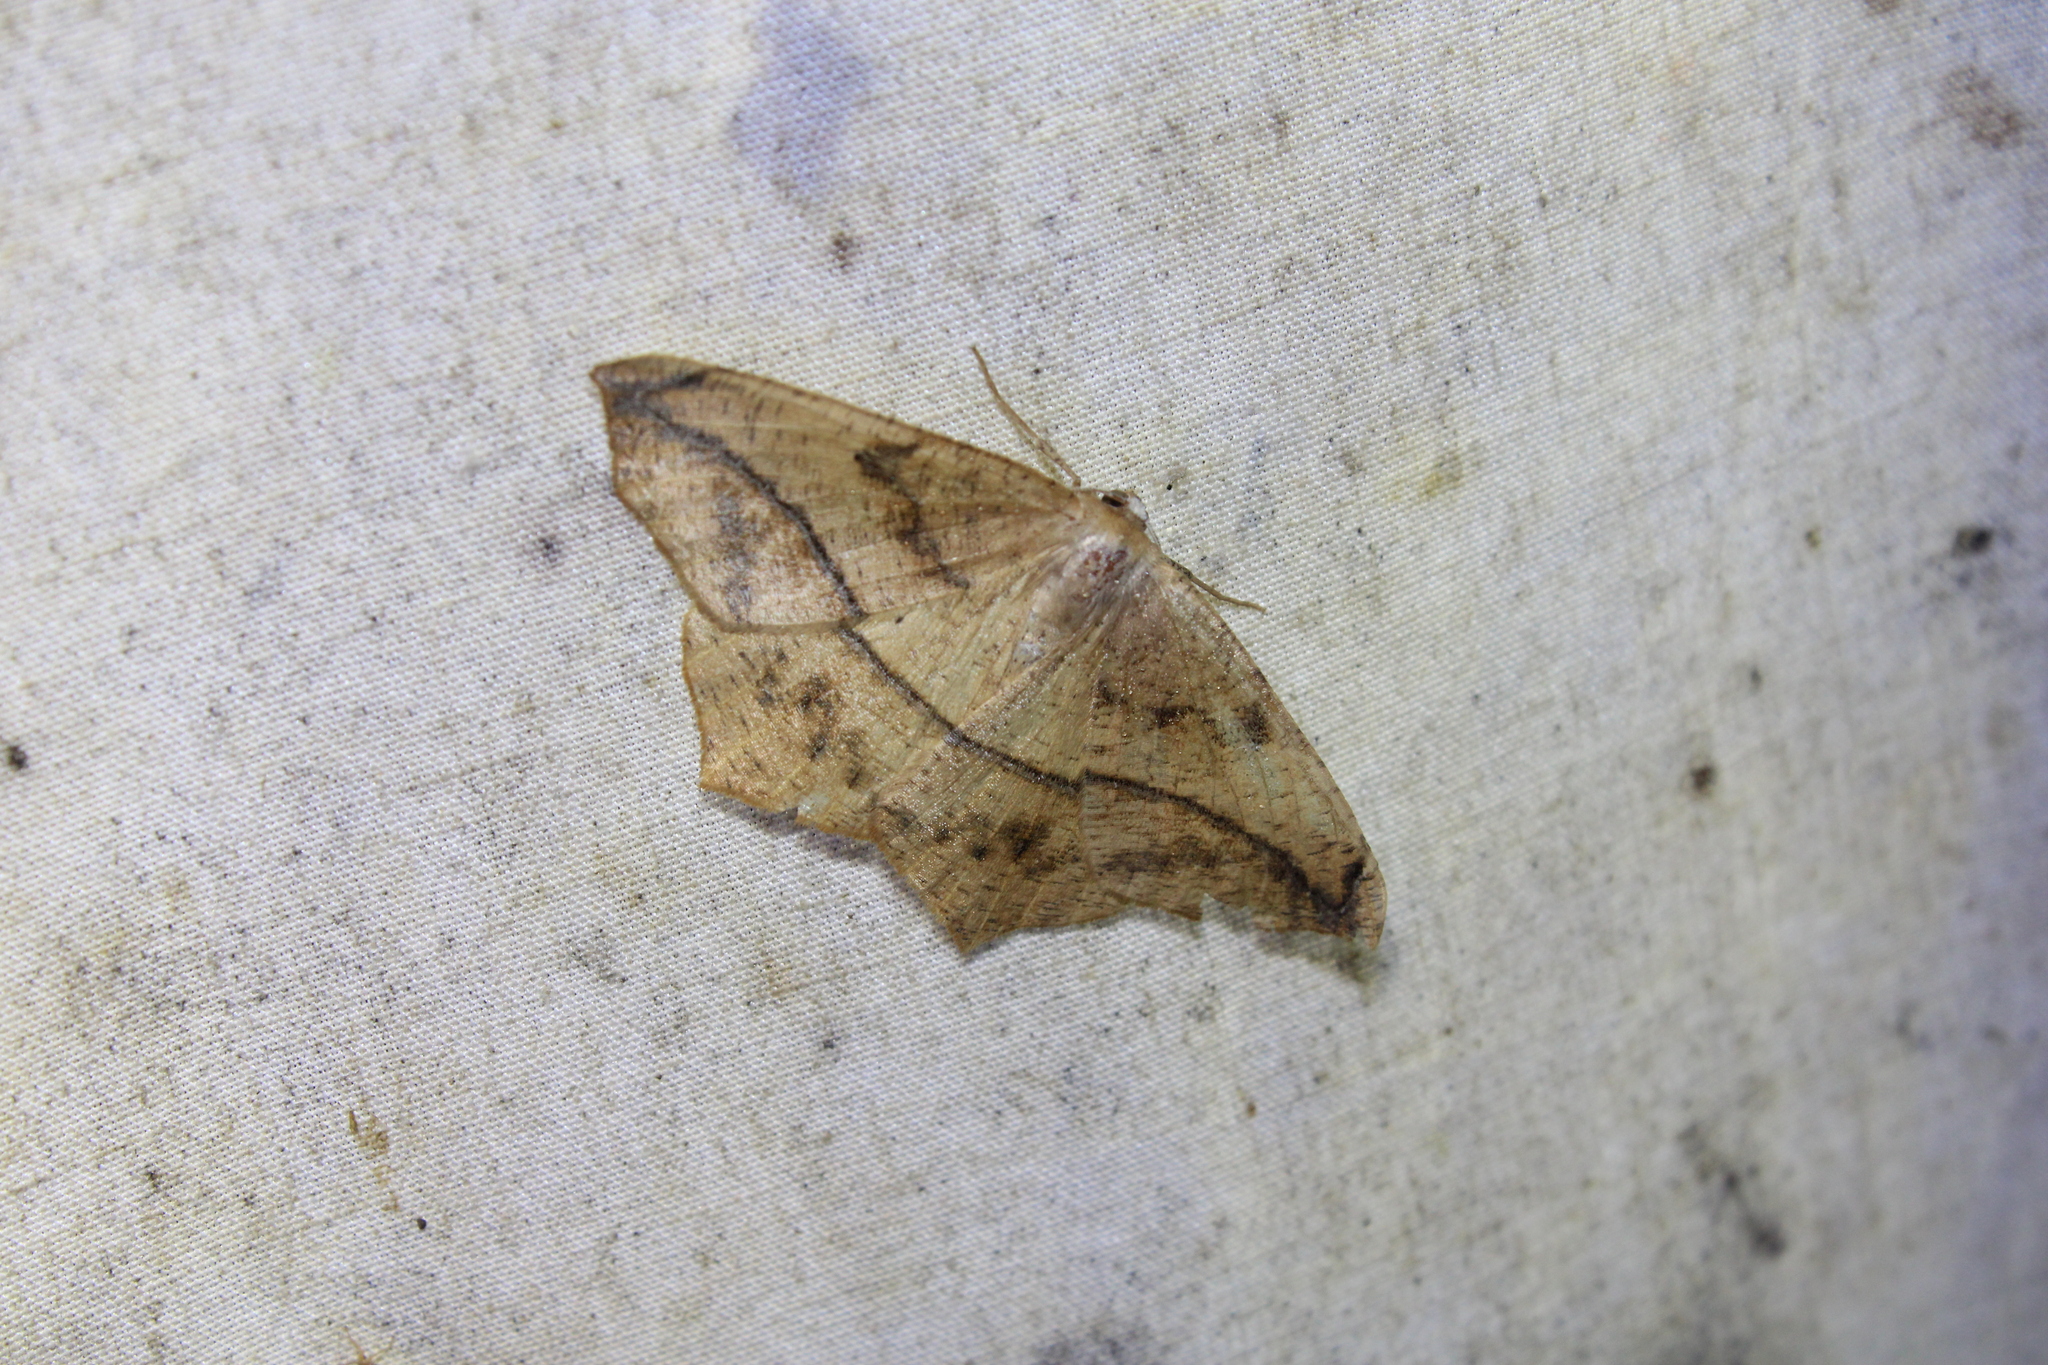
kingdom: Animalia
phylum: Arthropoda
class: Insecta
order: Lepidoptera
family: Geometridae
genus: Prochoerodes
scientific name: Prochoerodes lineola
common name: Large maple spanworm
